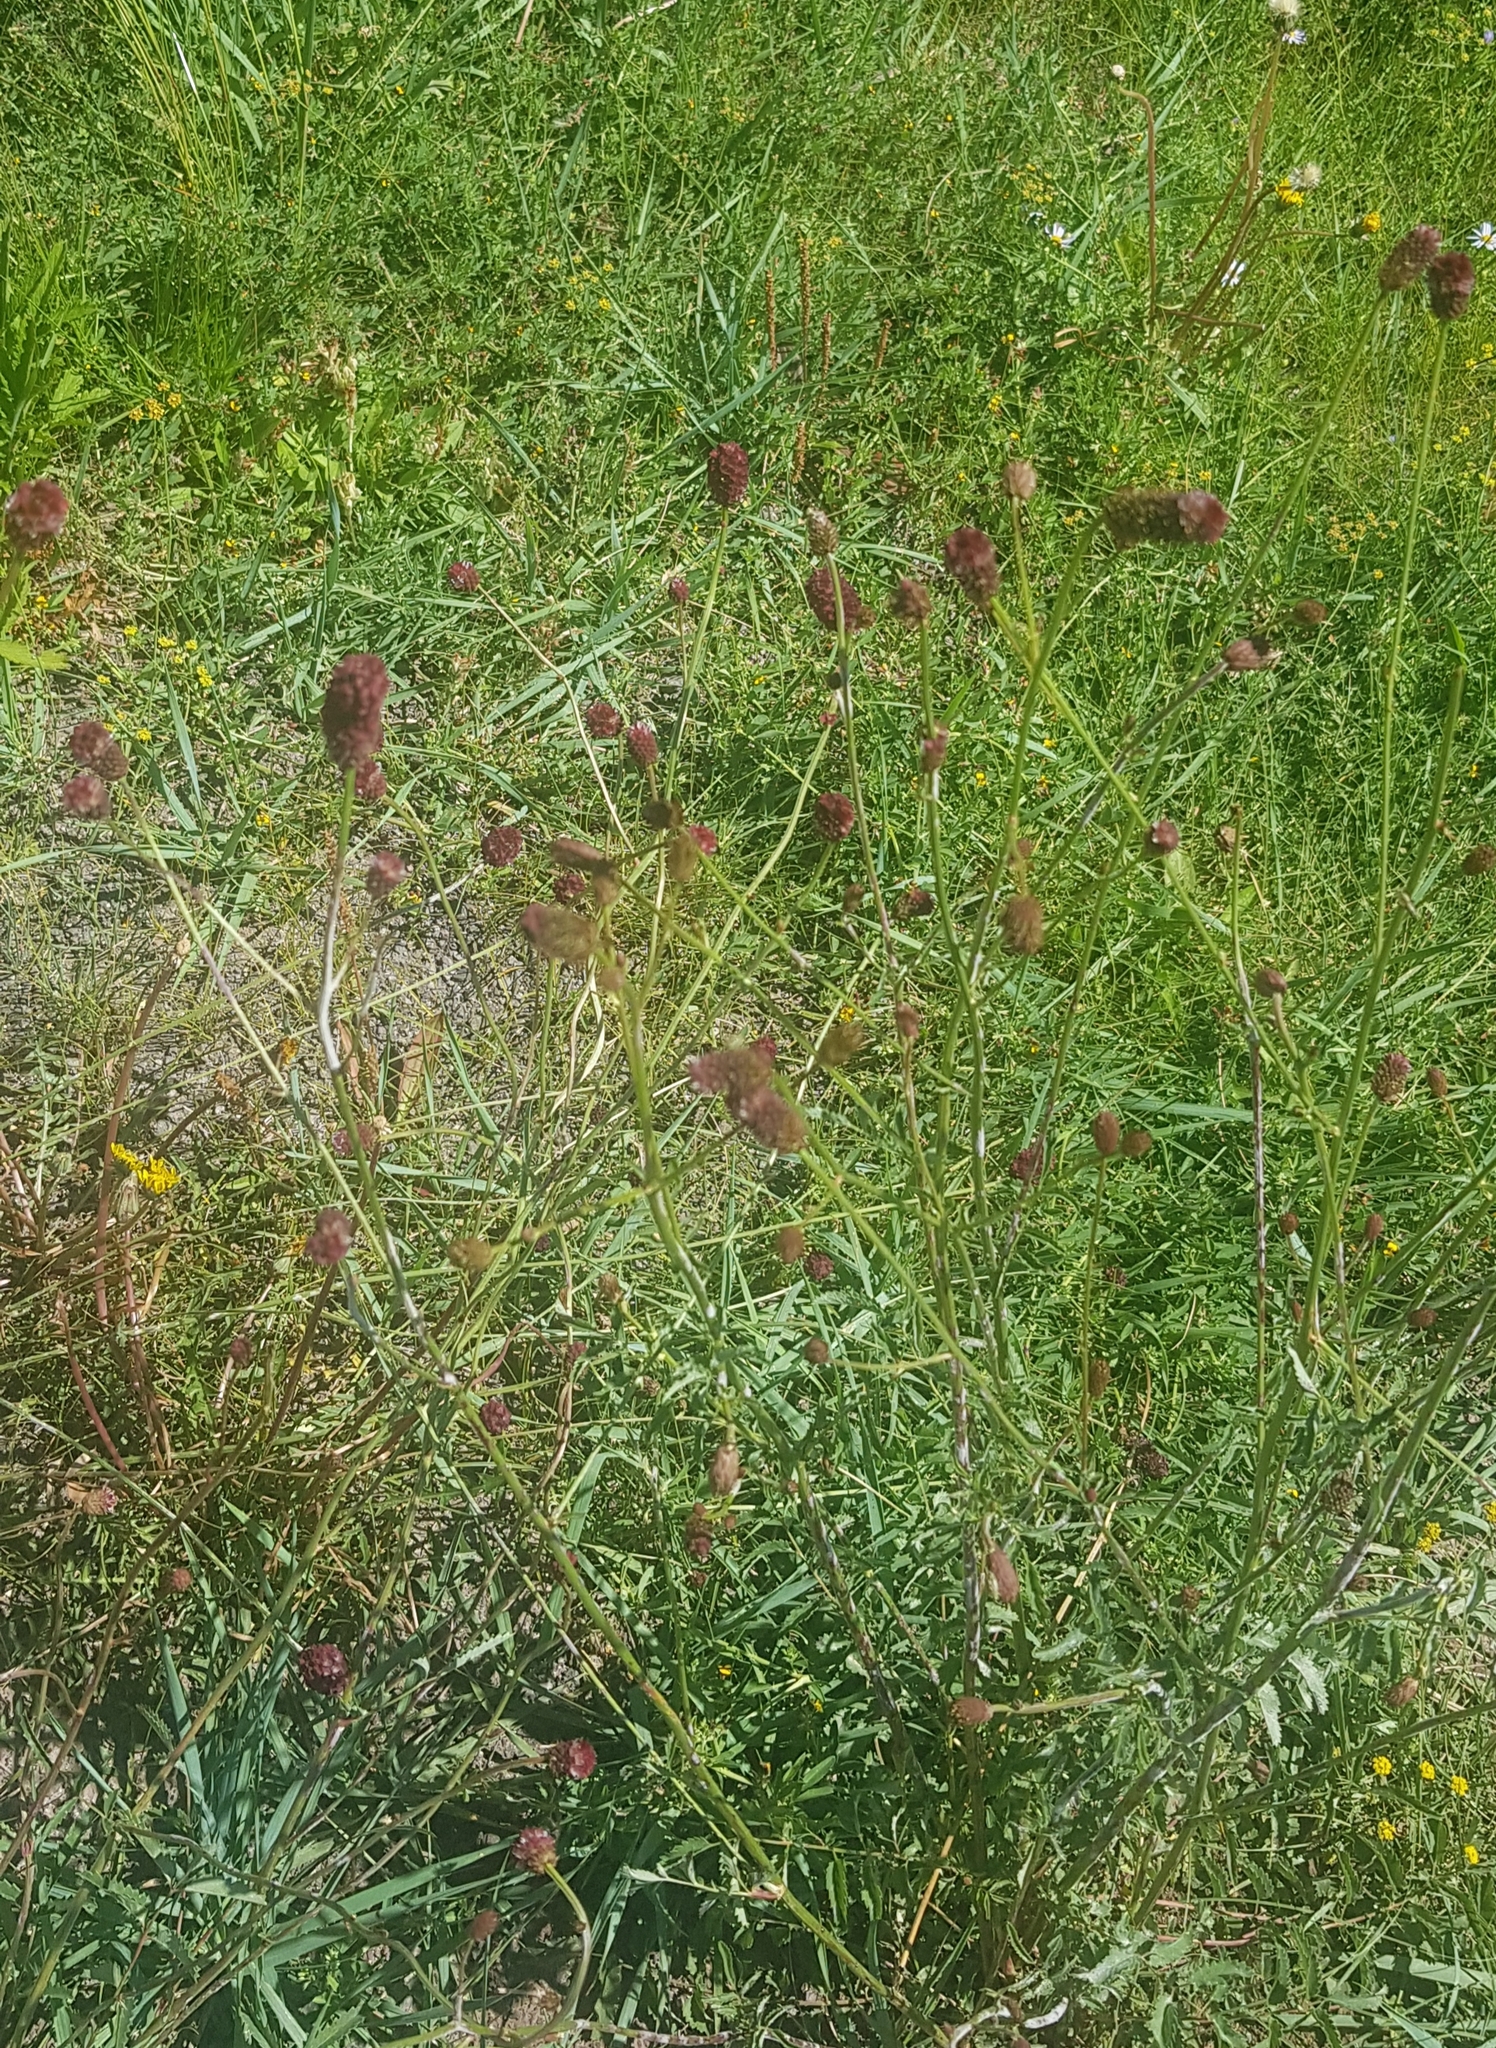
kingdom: Plantae
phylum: Tracheophyta
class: Magnoliopsida
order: Rosales
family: Rosaceae
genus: Sanguisorba
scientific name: Sanguisorba officinalis
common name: Great burnet
